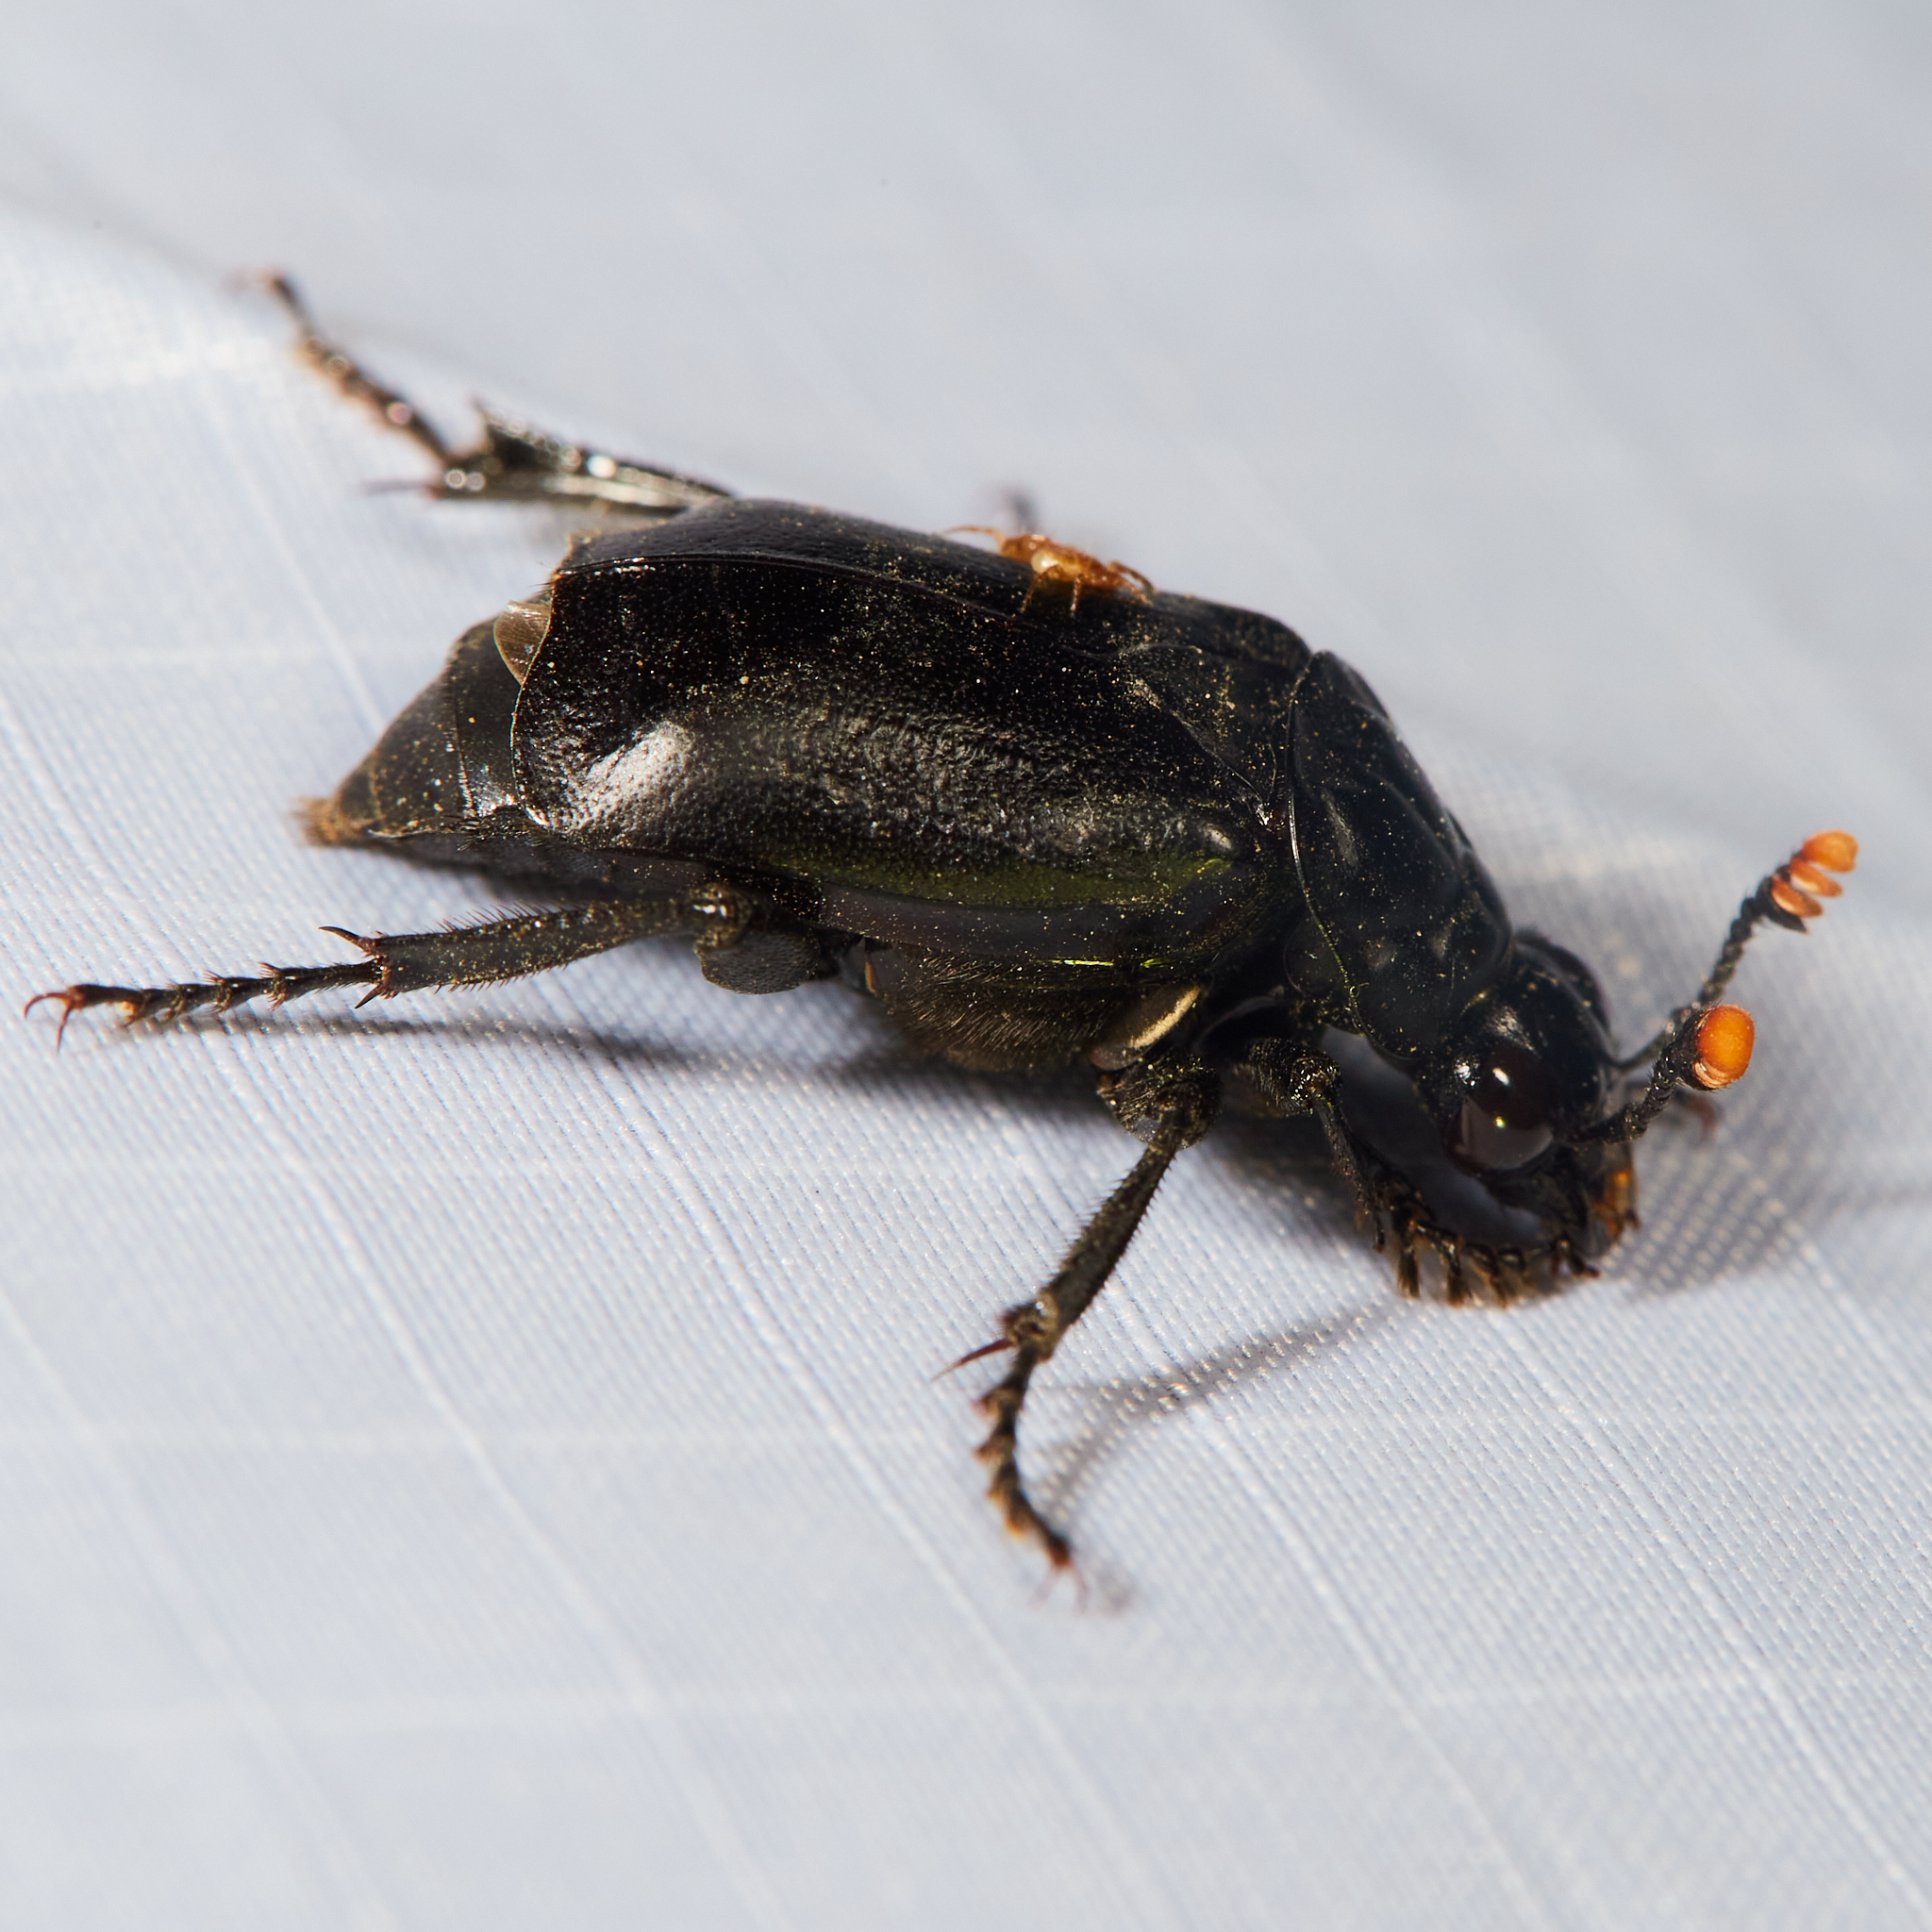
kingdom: Animalia
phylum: Arthropoda
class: Insecta
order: Coleoptera
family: Staphylinidae
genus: Nicrophorus
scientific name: Nicrophorus nigrita
